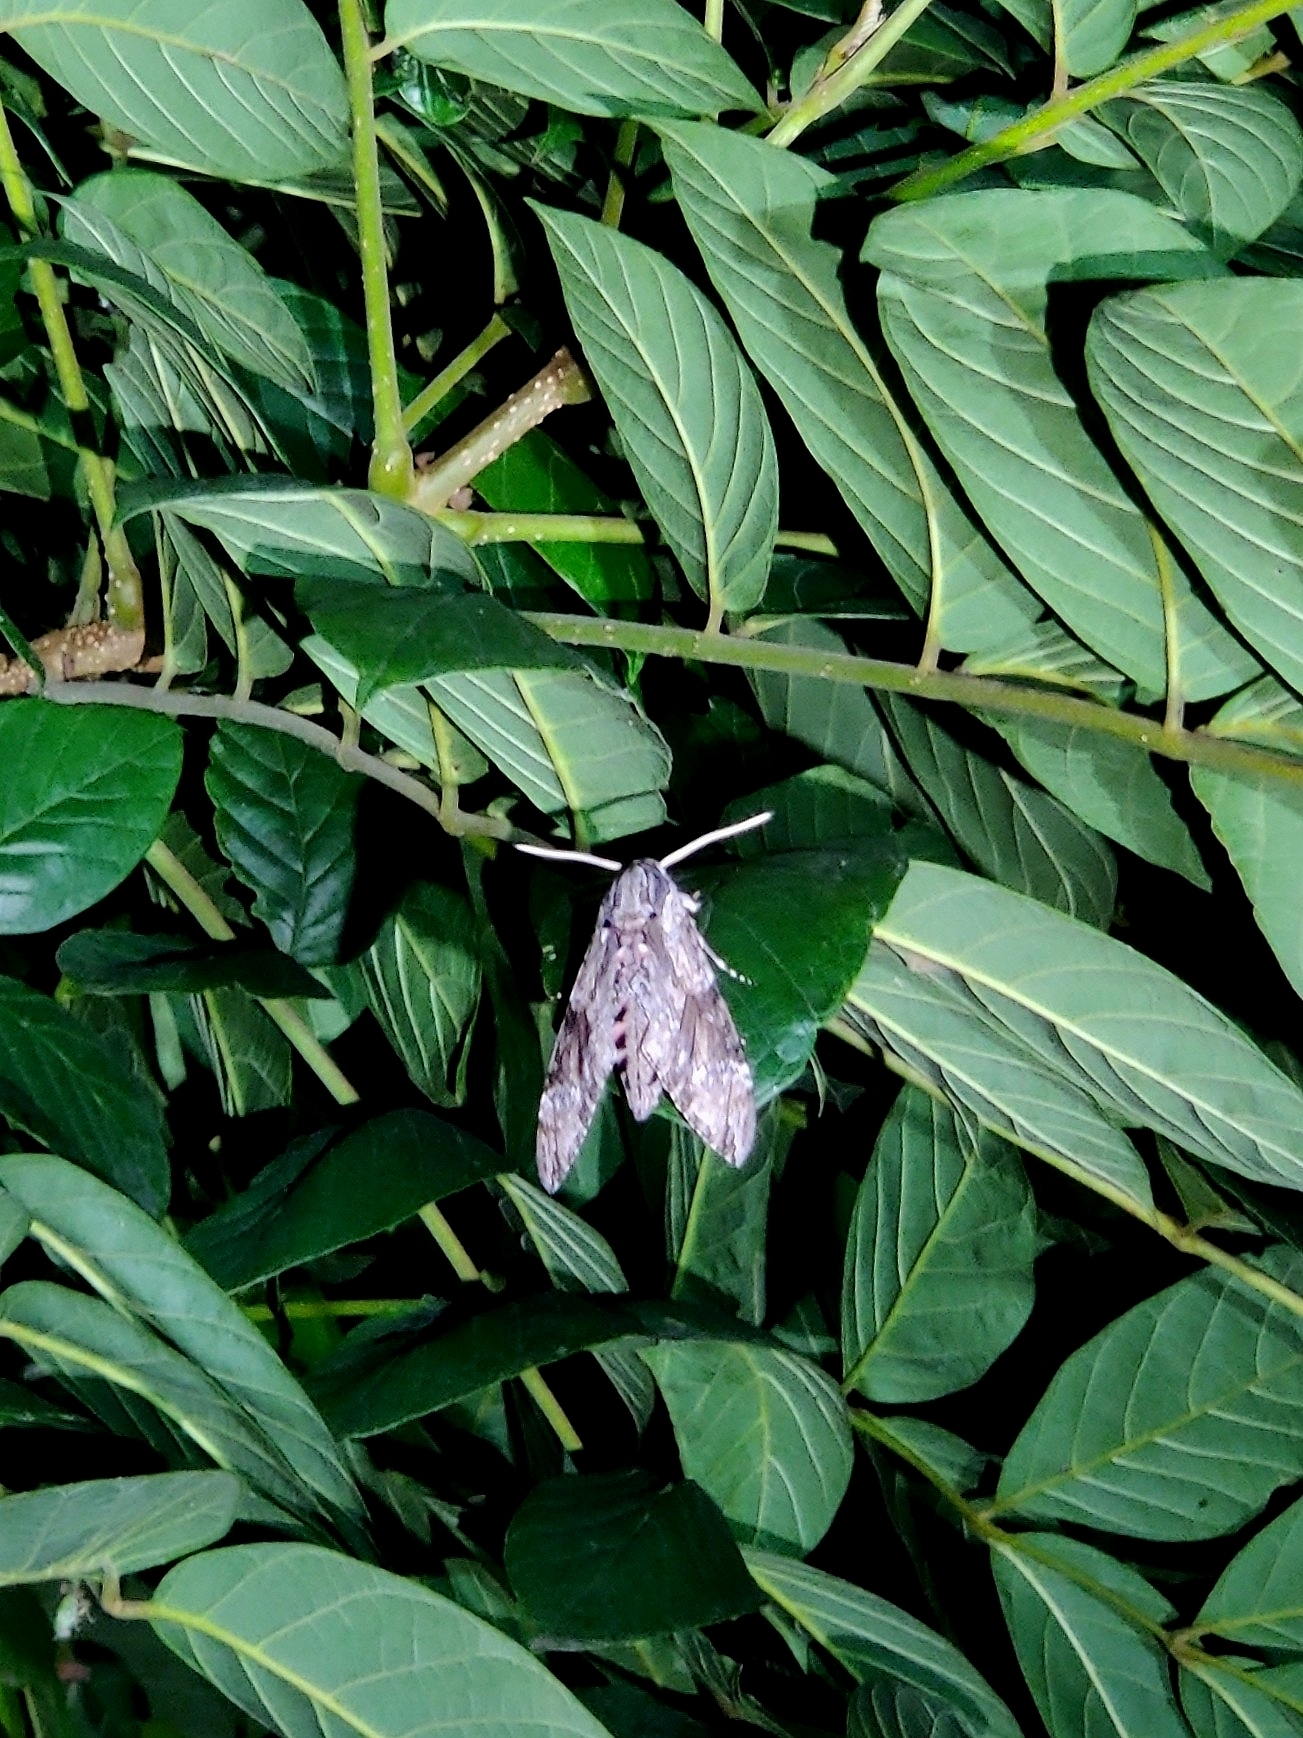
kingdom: Animalia
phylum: Arthropoda
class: Insecta
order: Lepidoptera
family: Sphingidae
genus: Agrius
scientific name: Agrius convolvuli
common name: Convolvulus hawkmoth
